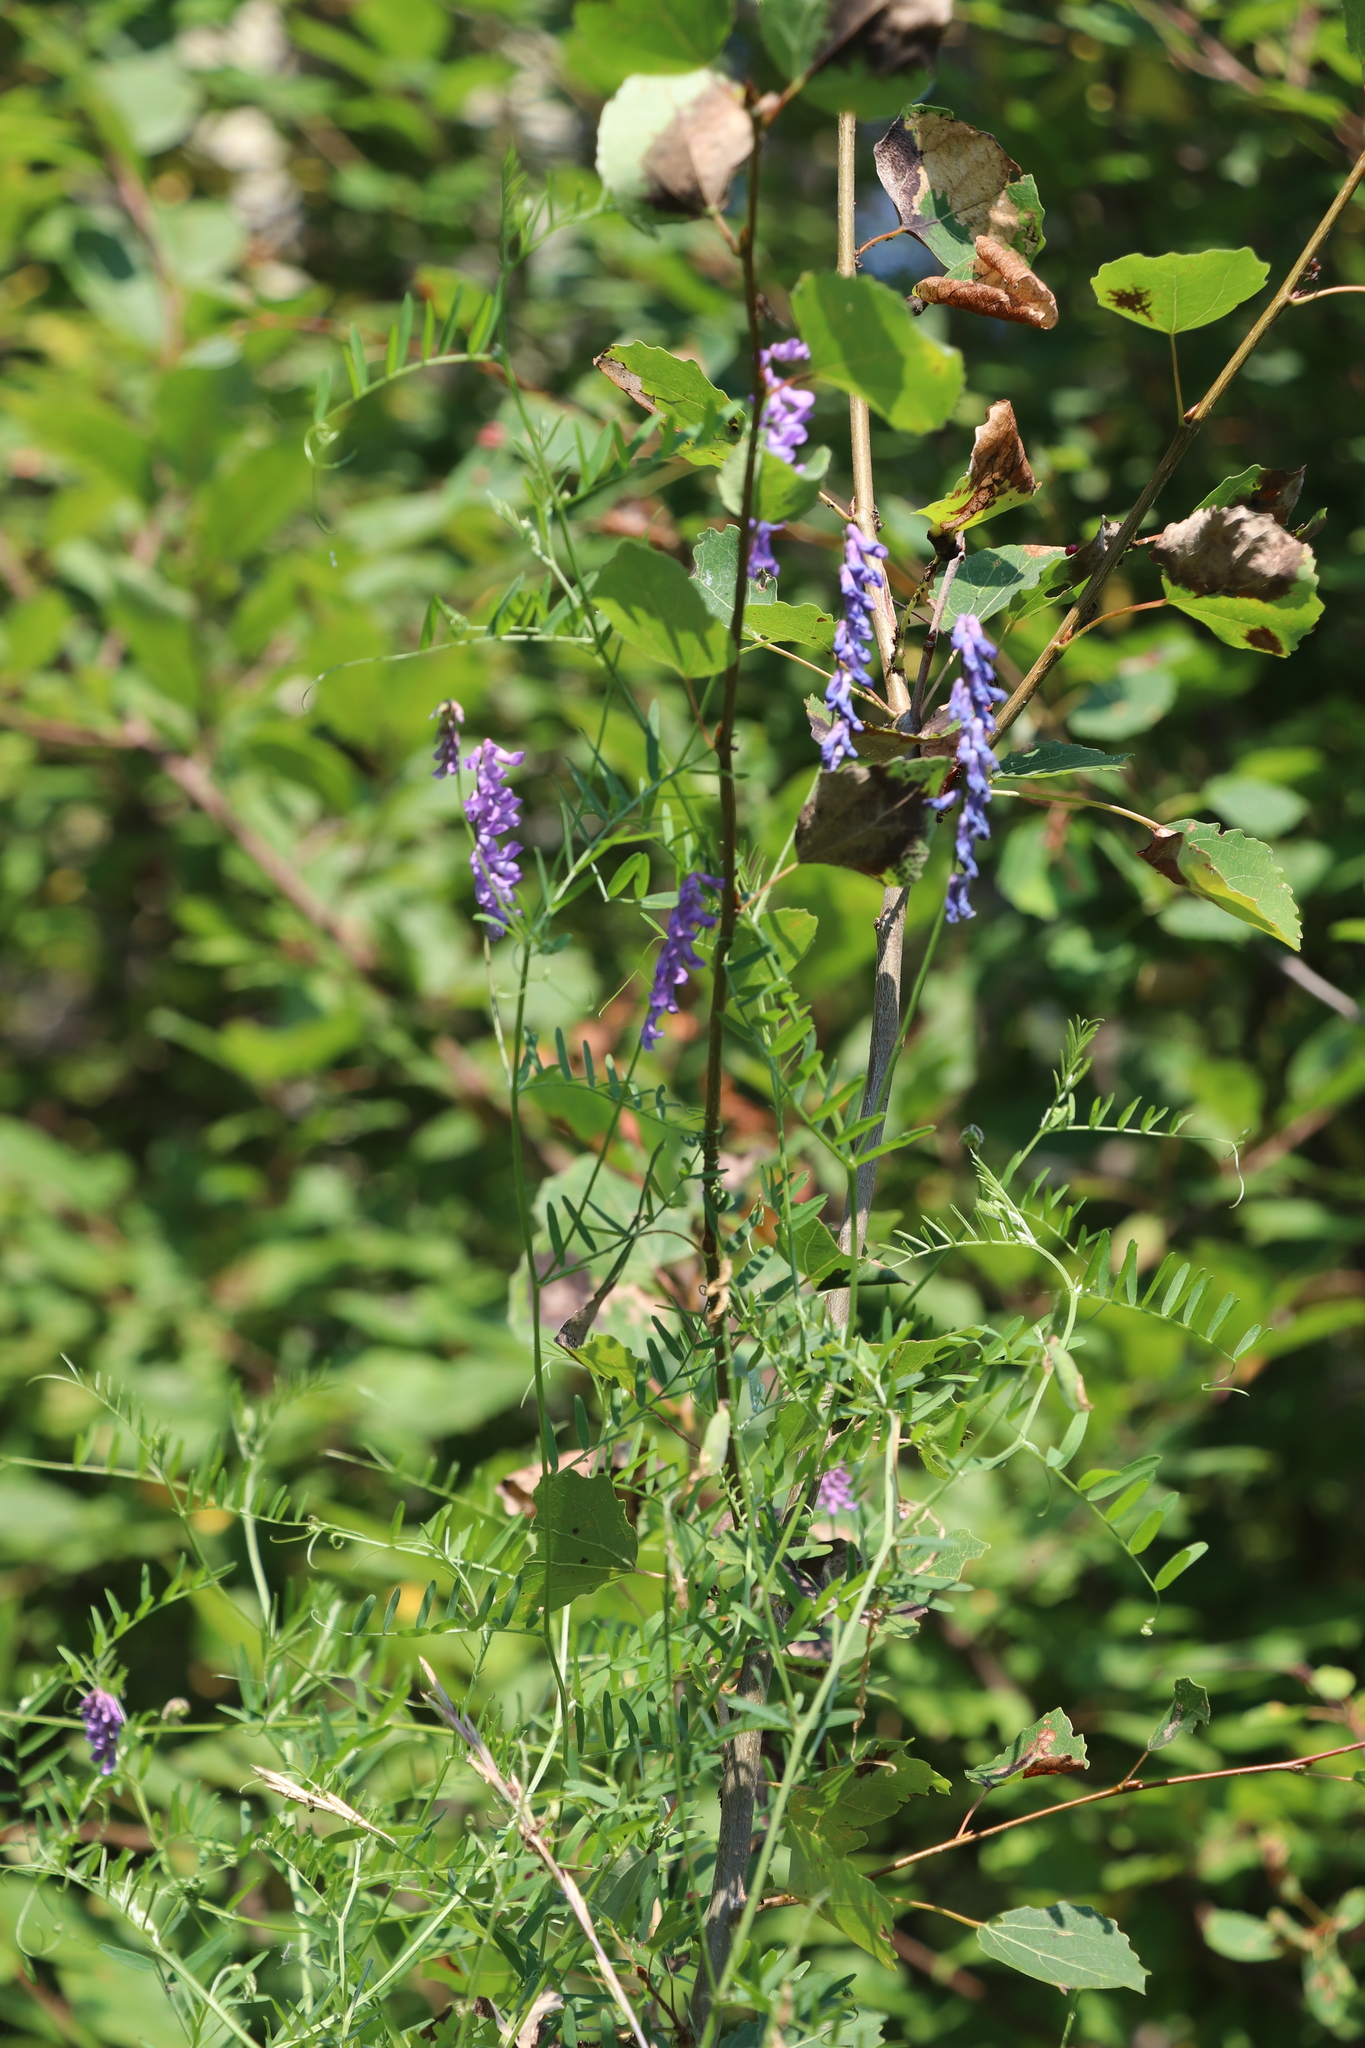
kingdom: Plantae
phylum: Tracheophyta
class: Magnoliopsida
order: Fabales
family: Fabaceae
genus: Vicia
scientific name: Vicia cracca
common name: Bird vetch
